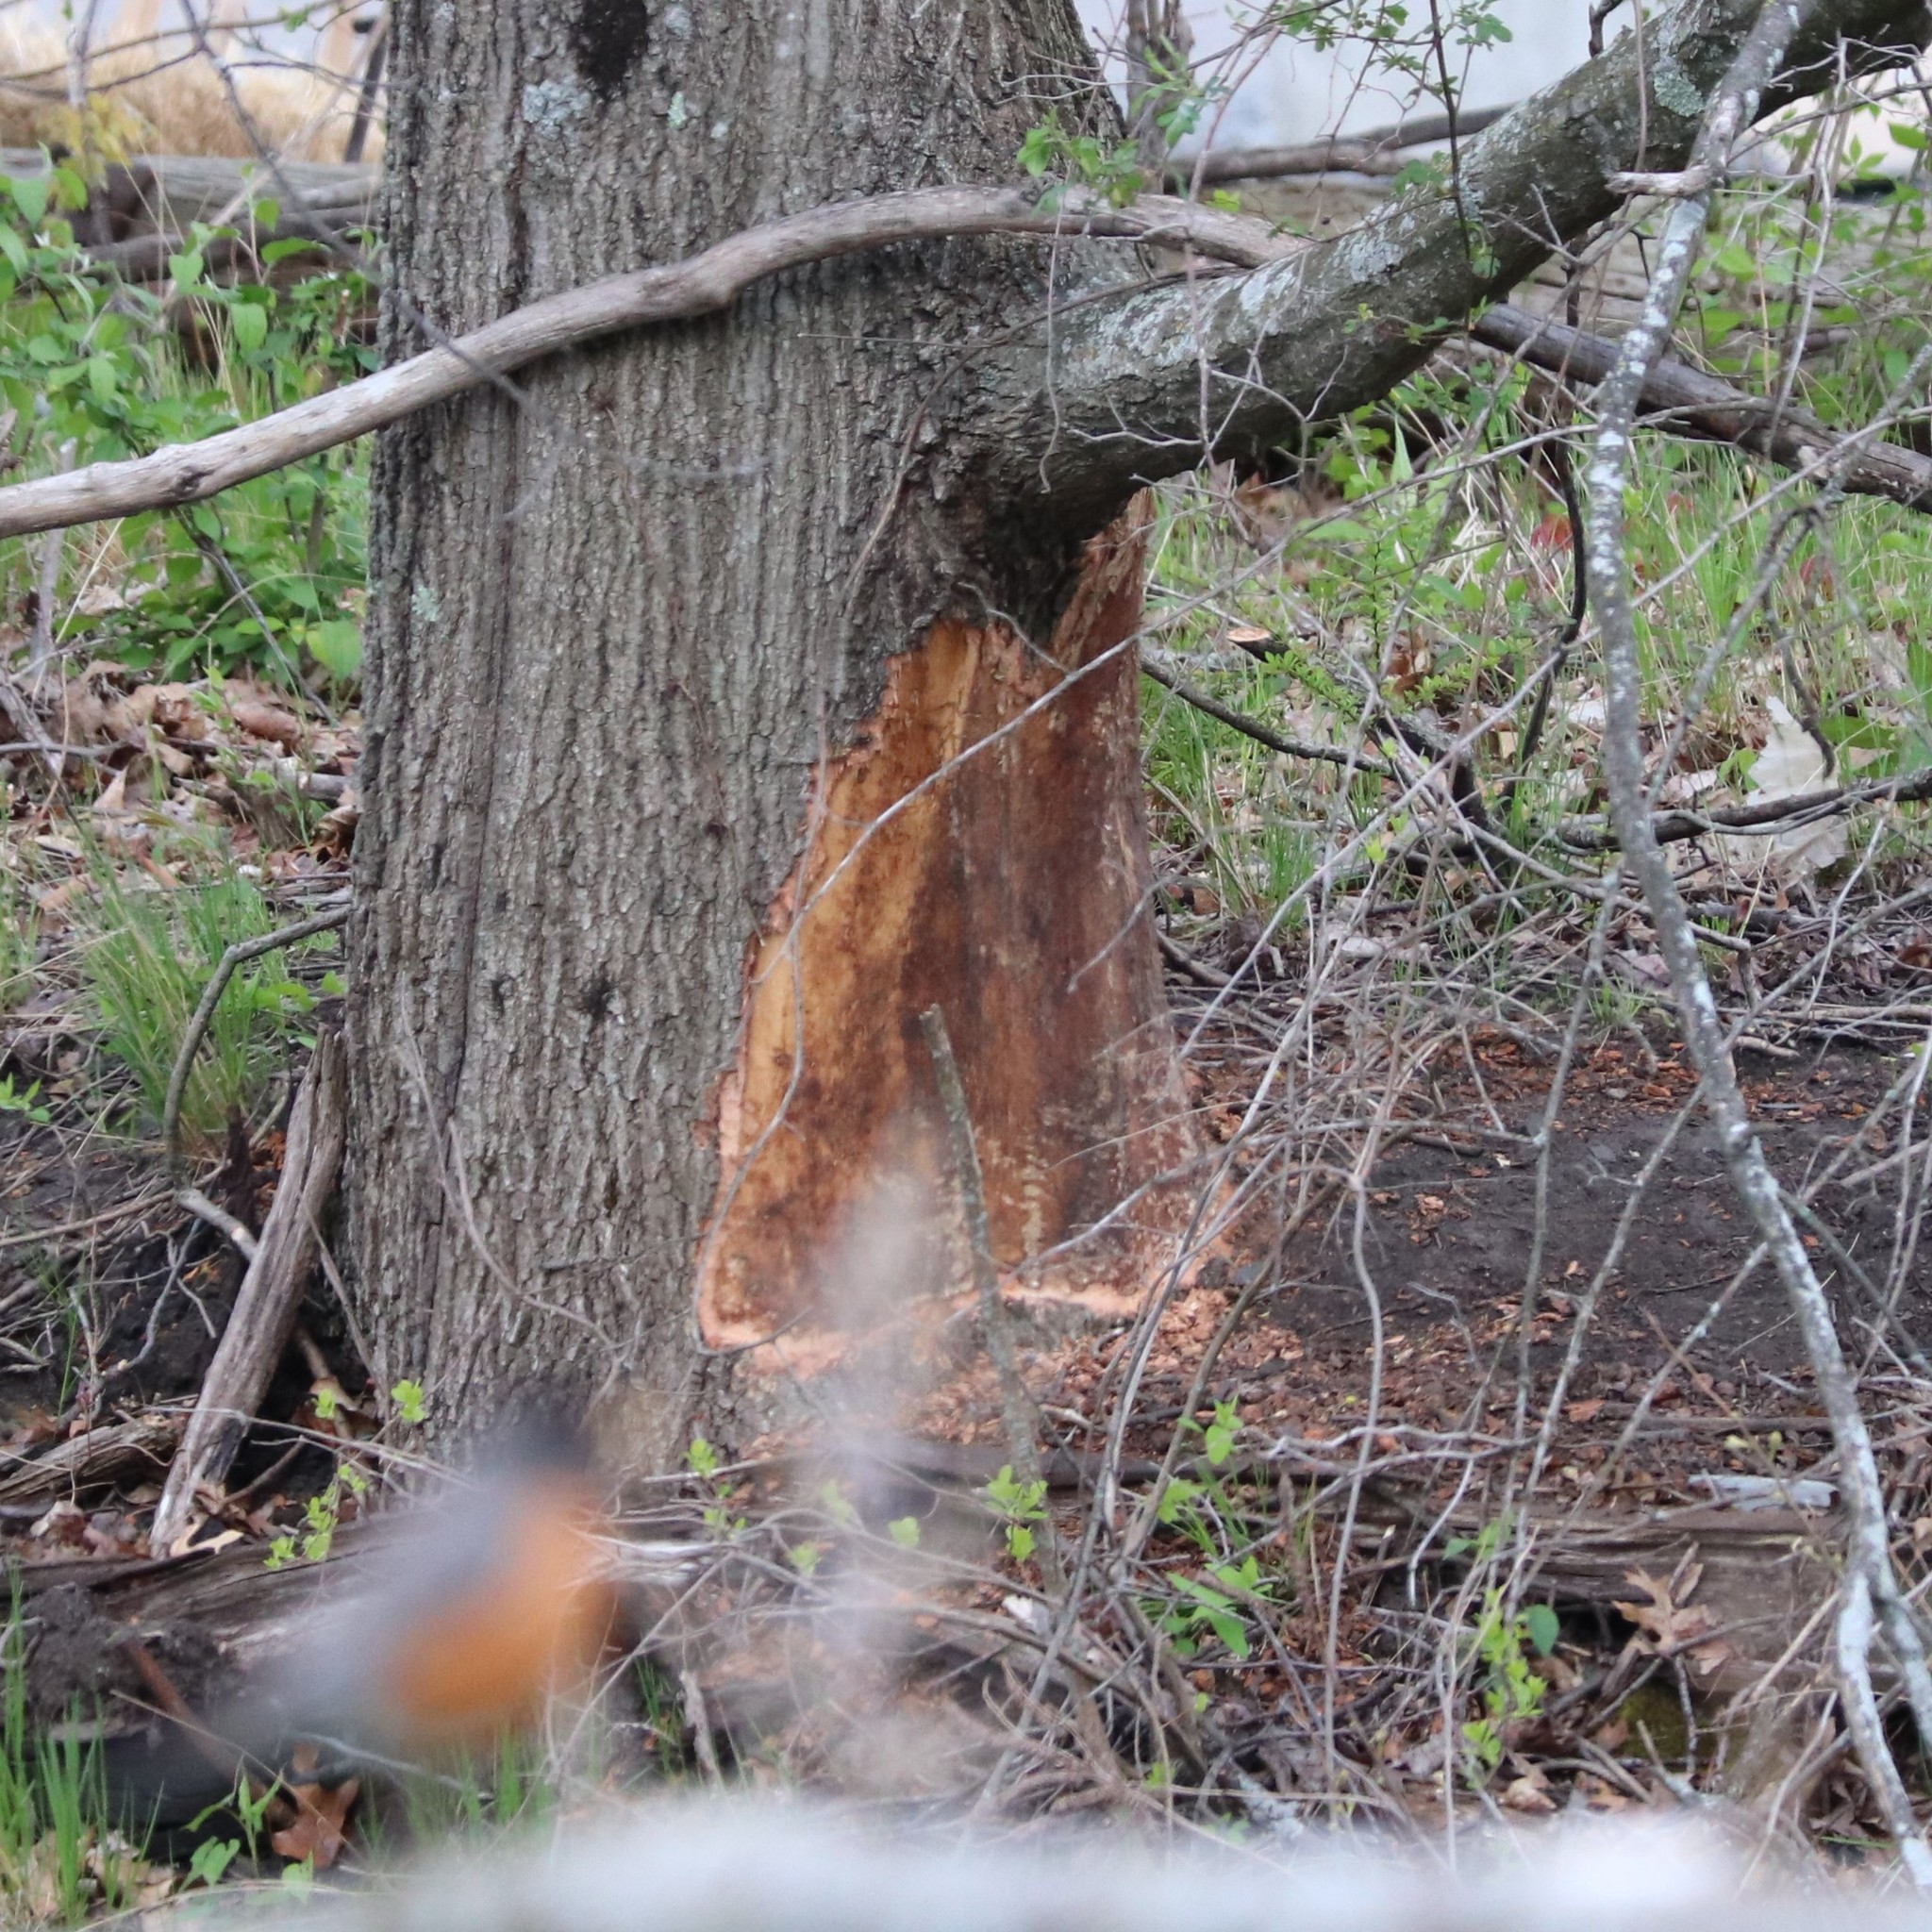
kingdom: Animalia
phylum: Chordata
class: Mammalia
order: Rodentia
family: Castoridae
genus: Castor
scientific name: Castor canadensis
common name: American beaver
